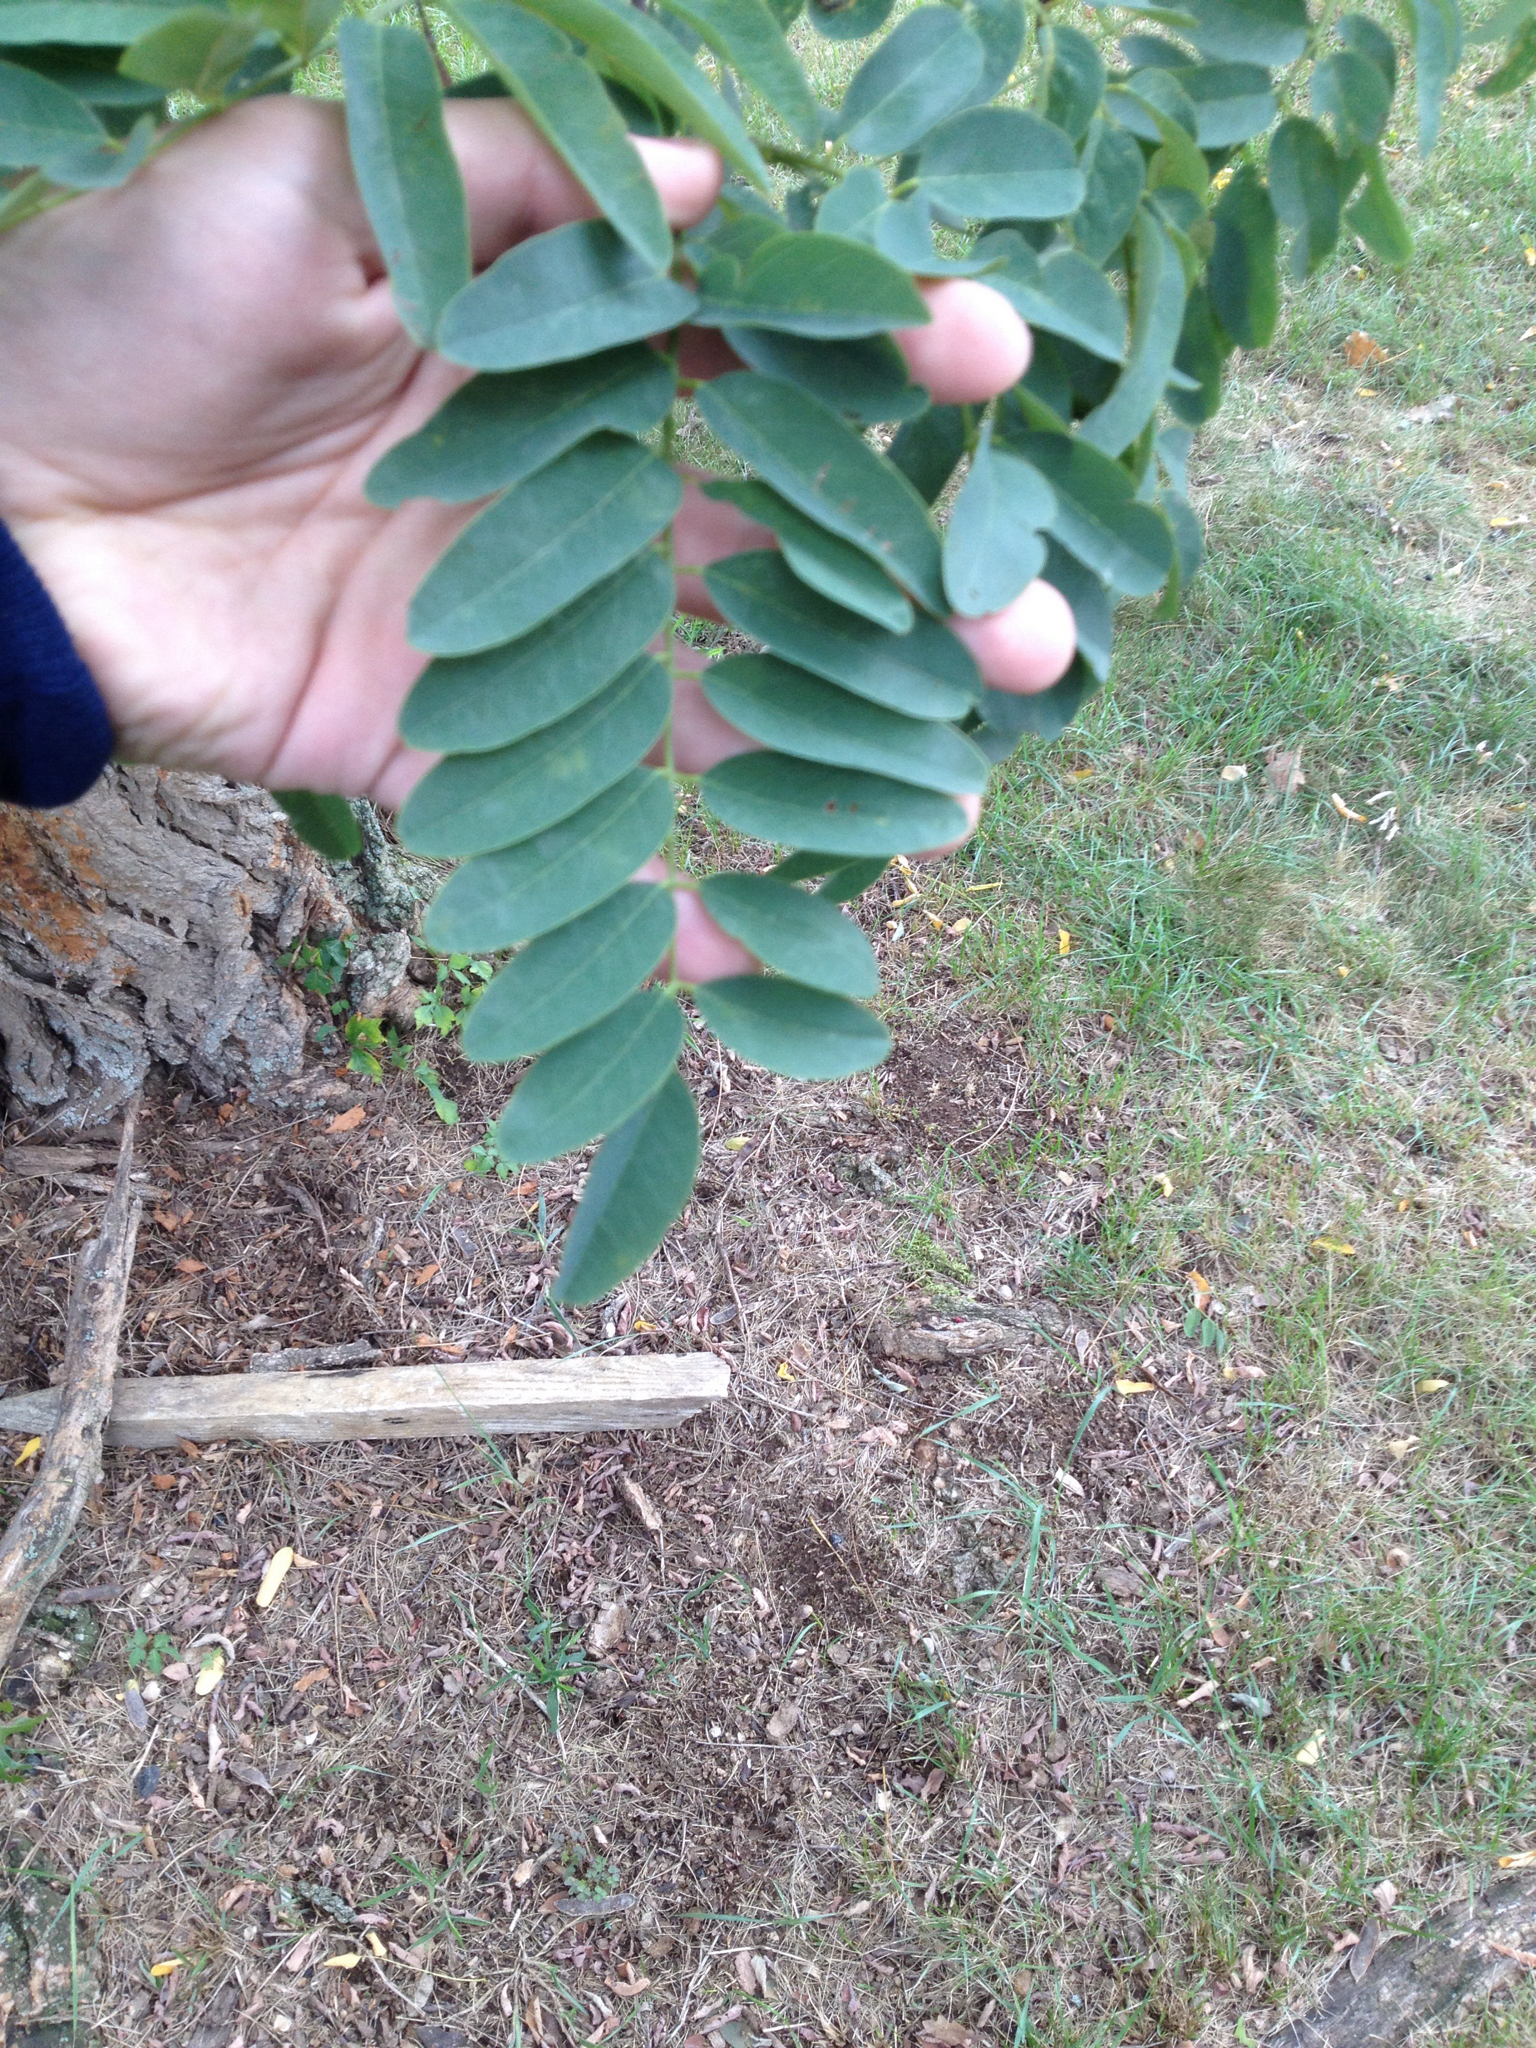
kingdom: Plantae
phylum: Tracheophyta
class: Magnoliopsida
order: Fabales
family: Fabaceae
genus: Robinia
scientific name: Robinia pseudoacacia
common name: Black locust
